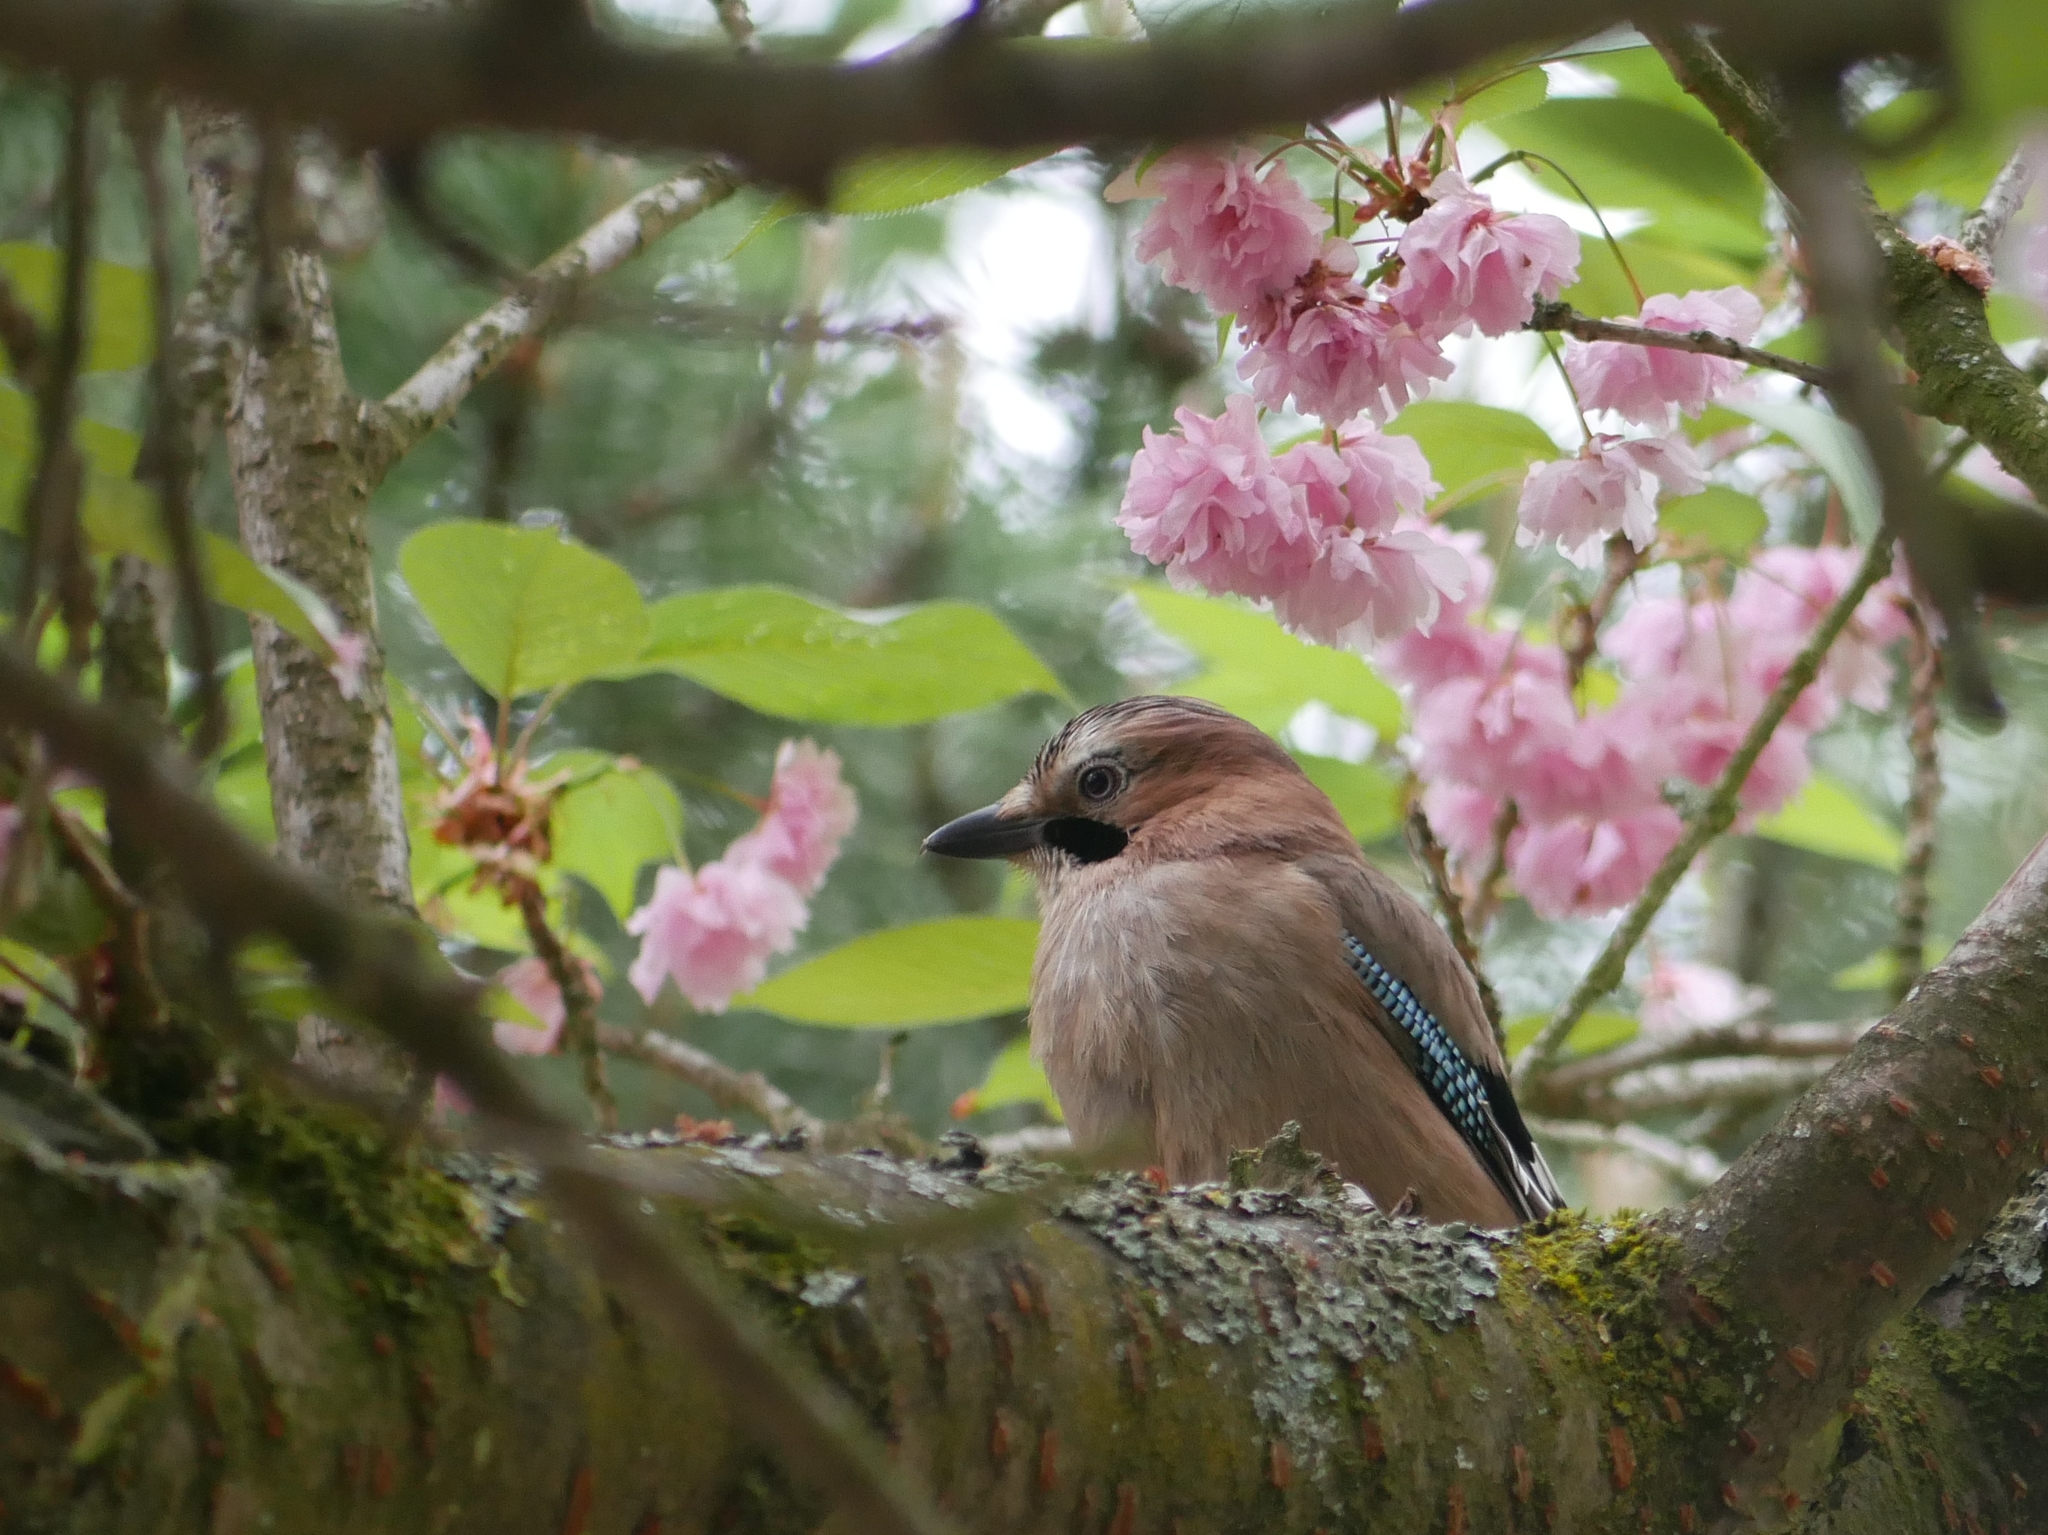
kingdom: Animalia
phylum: Chordata
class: Aves
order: Passeriformes
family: Corvidae
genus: Garrulus
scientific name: Garrulus glandarius
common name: Eurasian jay
